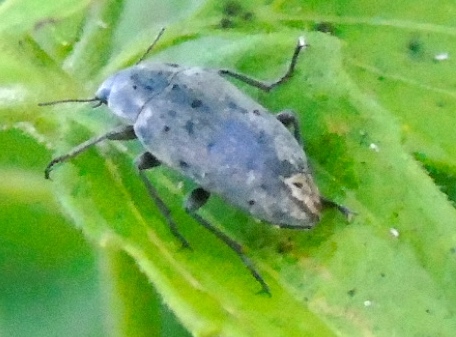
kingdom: Animalia
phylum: Arthropoda
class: Insecta
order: Coleoptera
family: Tenebrionidae
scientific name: Tenebrionidae
